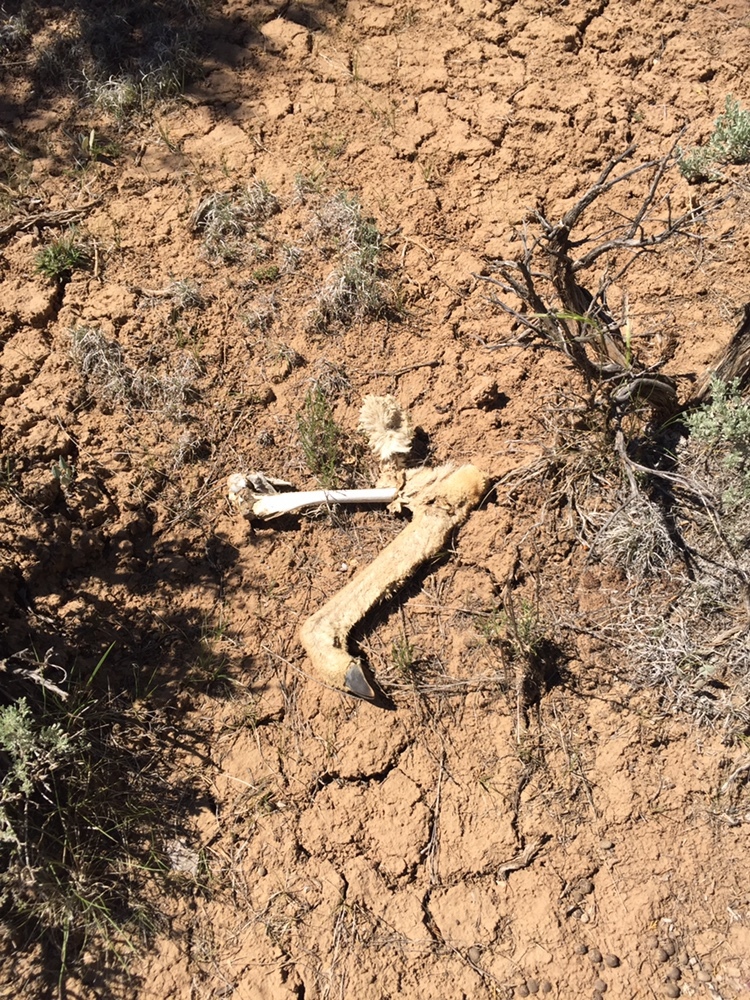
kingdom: Animalia
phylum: Chordata
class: Mammalia
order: Artiodactyla
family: Cervidae
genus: Odocoileus
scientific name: Odocoileus hemionus
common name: Mule deer
